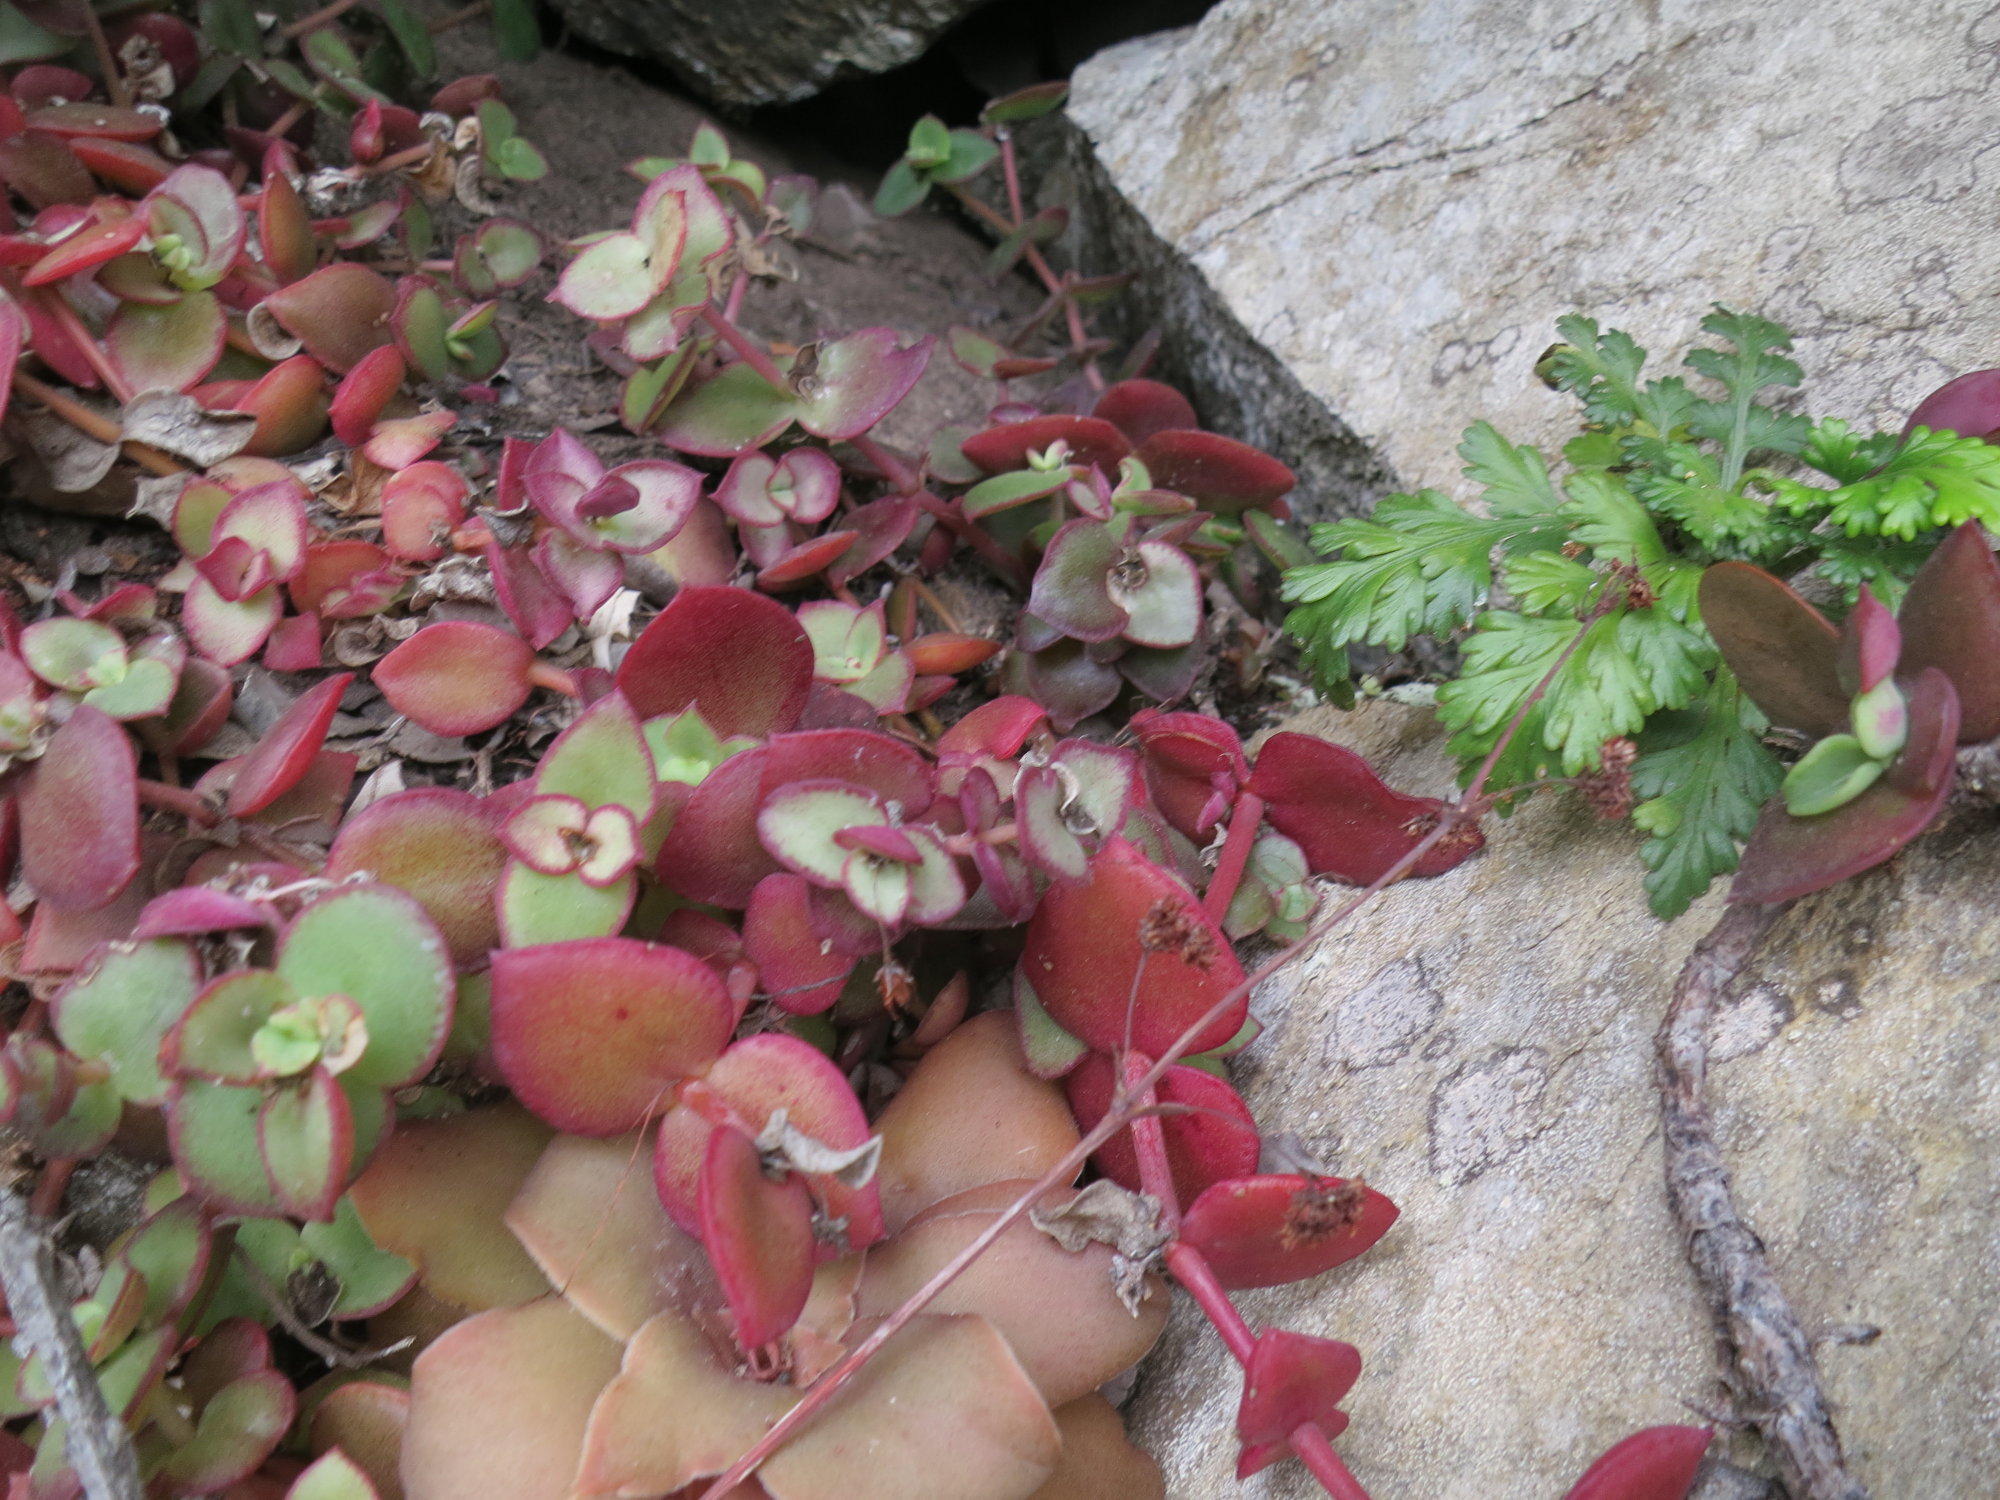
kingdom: Plantae
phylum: Tracheophyta
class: Magnoliopsida
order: Saxifragales
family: Crassulaceae
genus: Crassula
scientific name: Crassula pellucida
